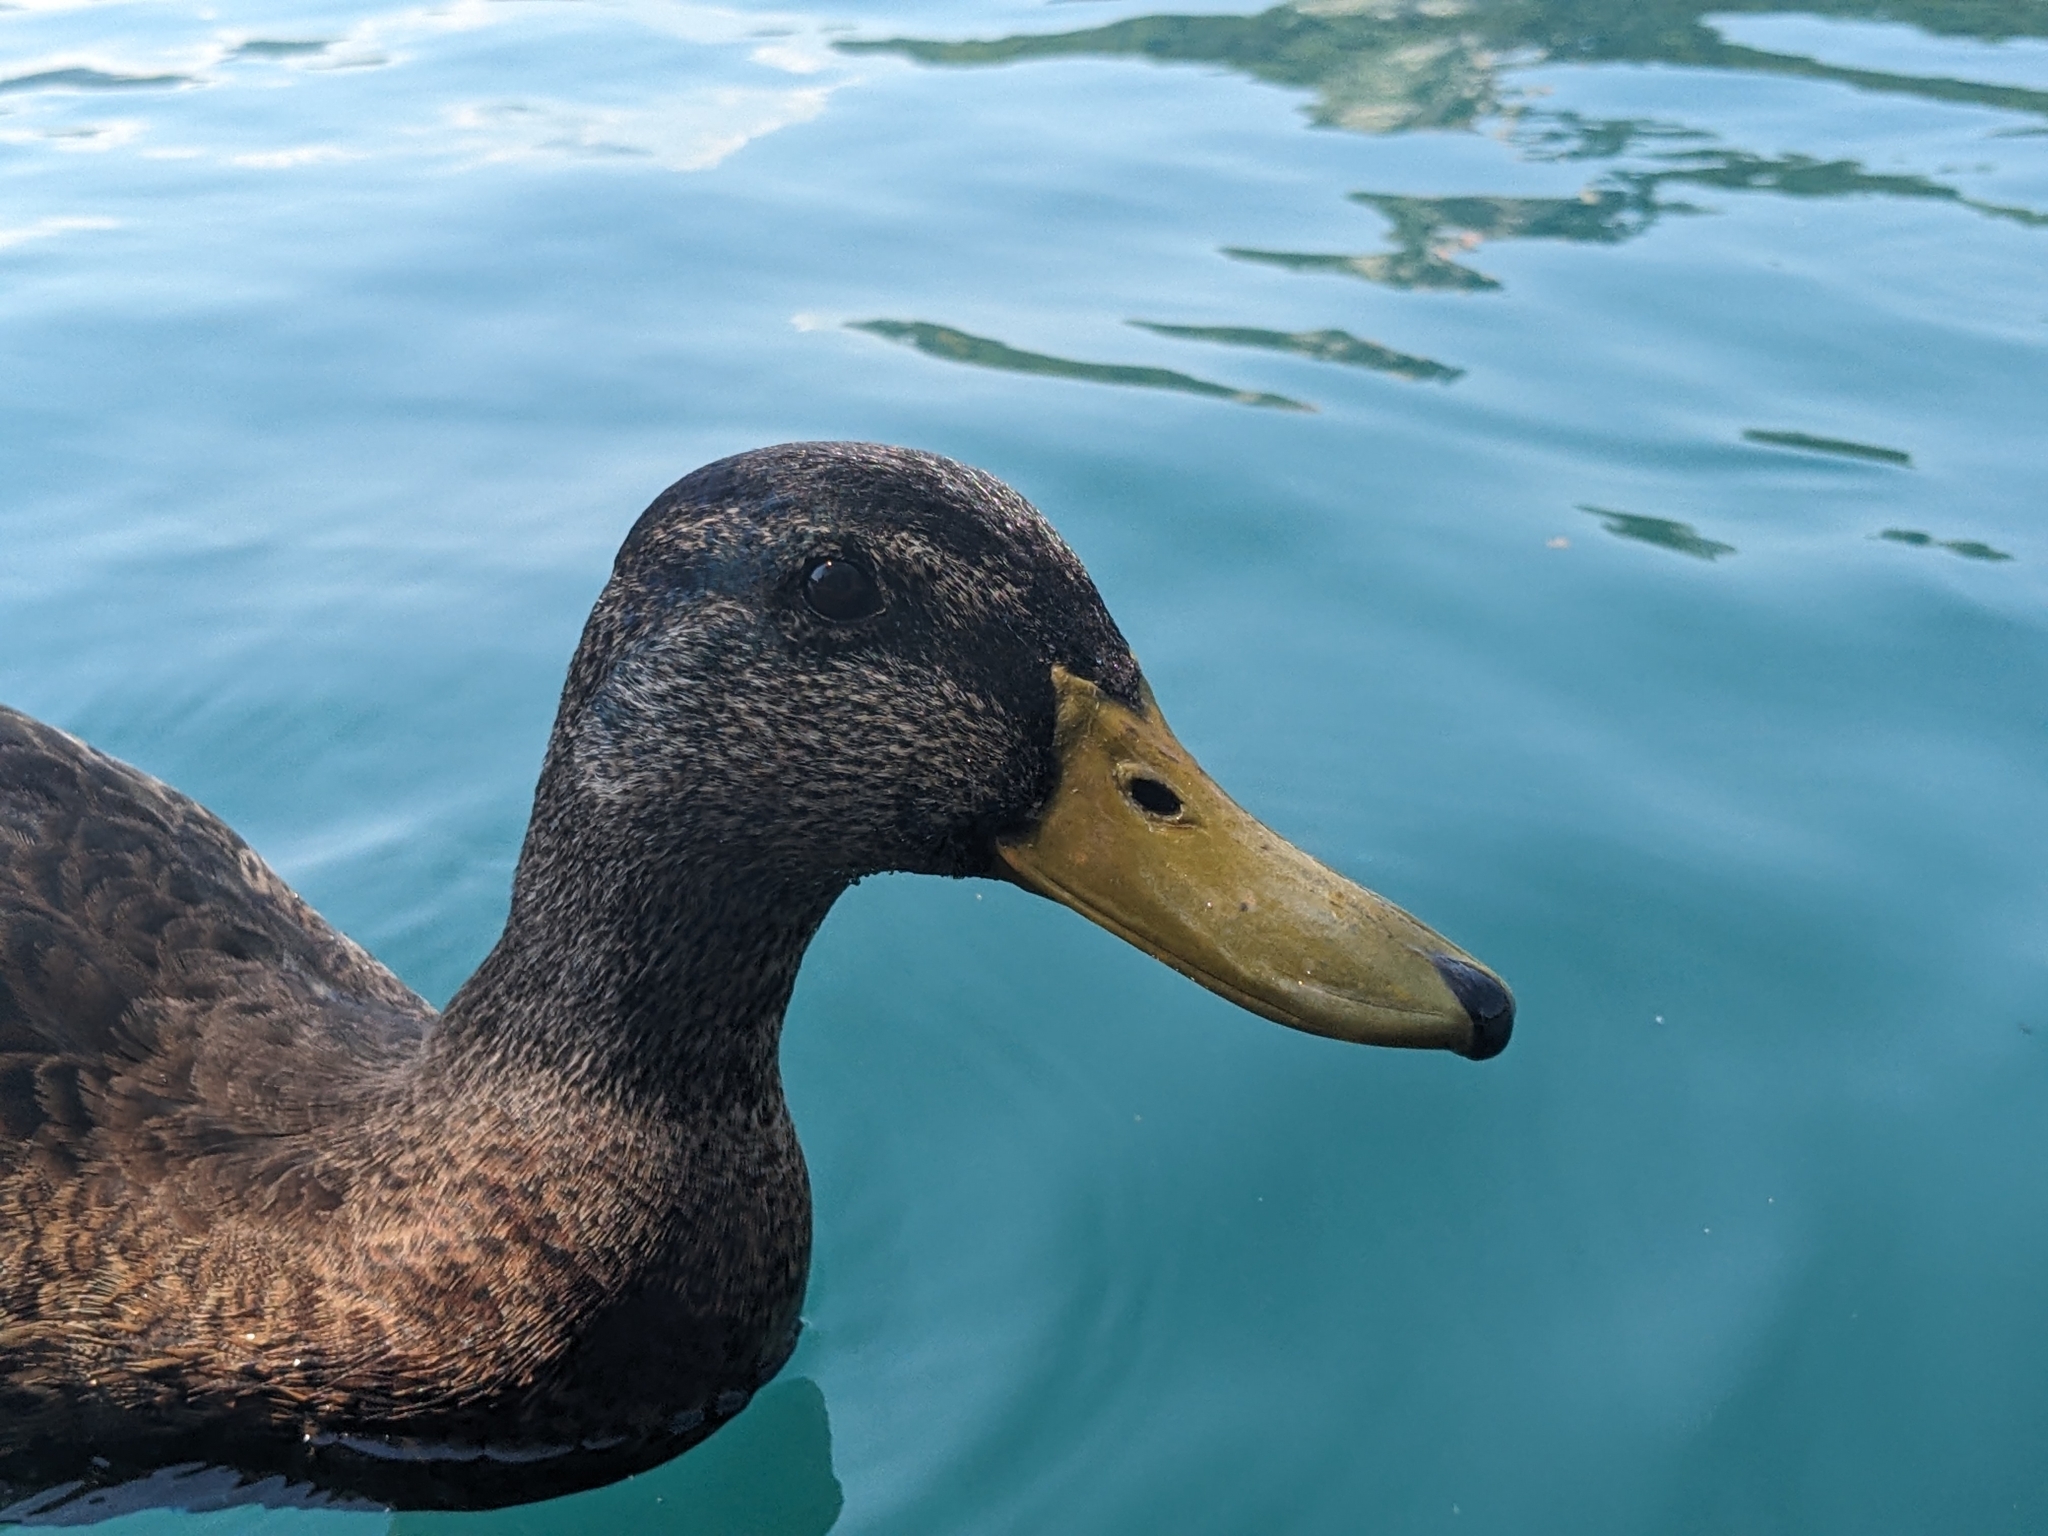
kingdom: Animalia
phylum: Chordata
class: Aves
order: Anseriformes
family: Anatidae
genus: Anas
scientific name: Anas platyrhynchos
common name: Mallard
